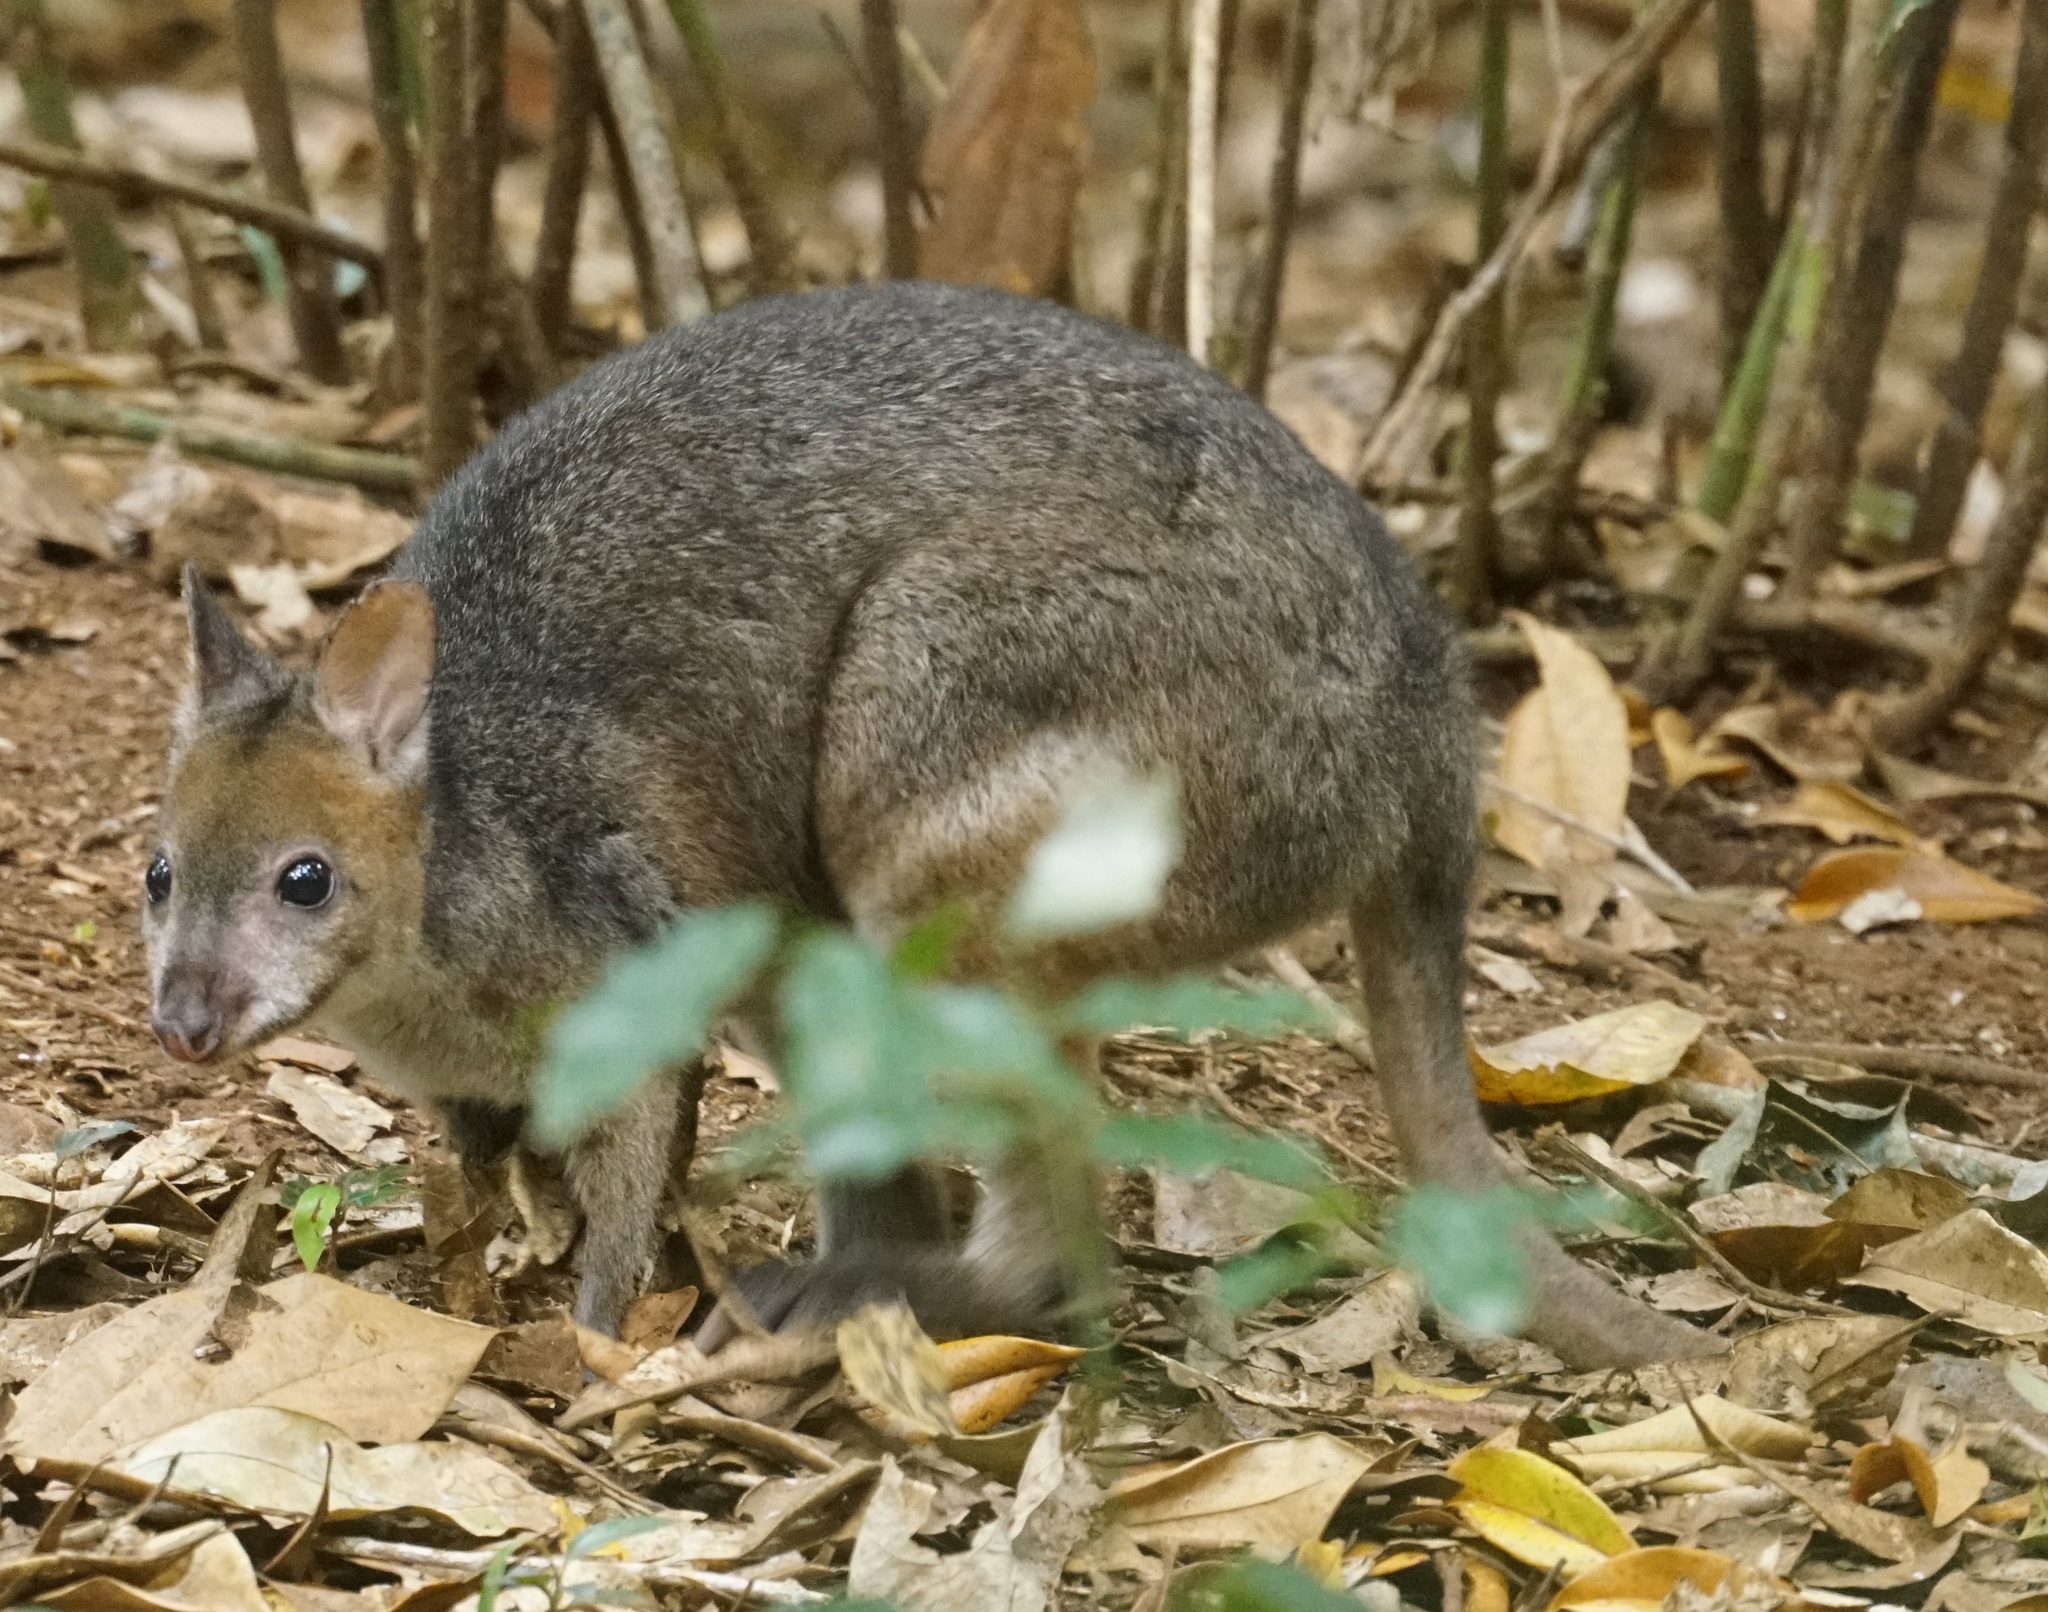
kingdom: Animalia
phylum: Chordata
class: Mammalia
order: Diprotodontia
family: Macropodidae
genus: Thylogale
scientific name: Thylogale stigmatica
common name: Red-legged pademelon
